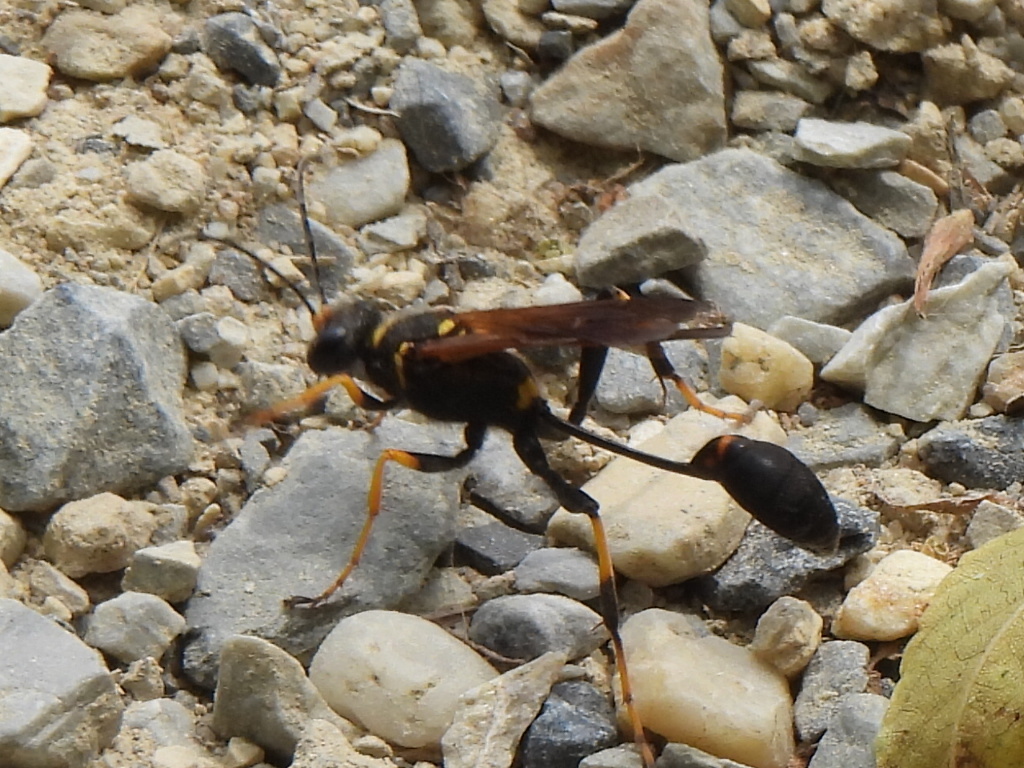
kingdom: Animalia
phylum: Arthropoda
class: Insecta
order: Hymenoptera
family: Sphecidae
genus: Sceliphron
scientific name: Sceliphron caementarium
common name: Mud dauber
